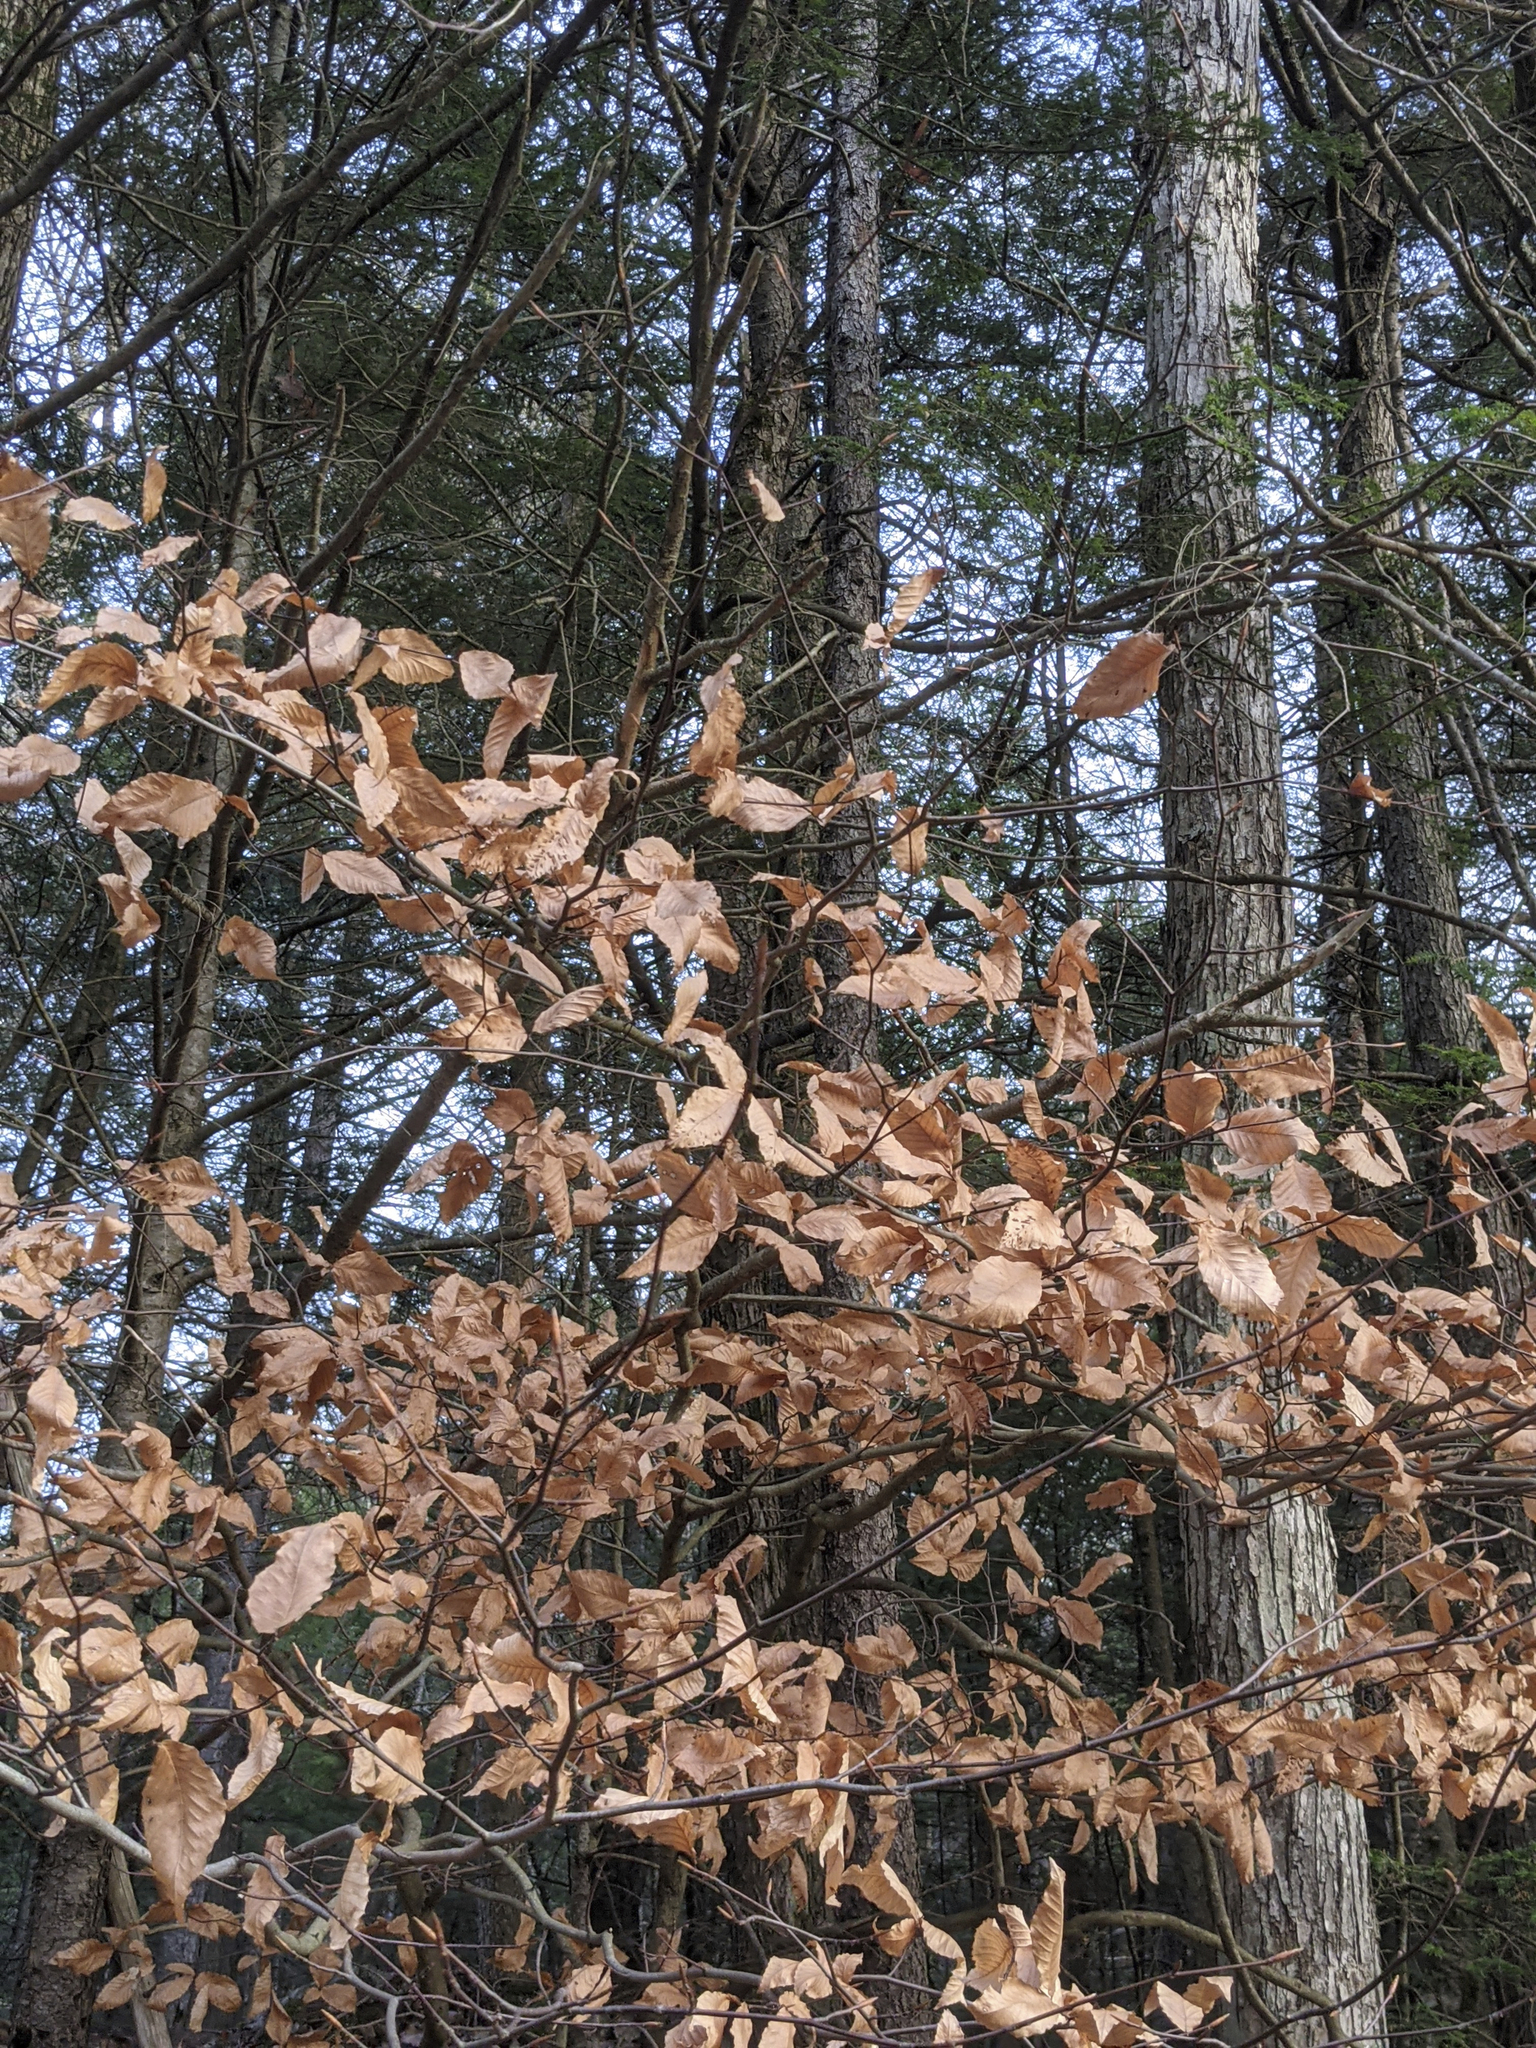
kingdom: Plantae
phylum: Tracheophyta
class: Magnoliopsida
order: Fagales
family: Fagaceae
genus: Fagus
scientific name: Fagus grandifolia
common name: American beech
